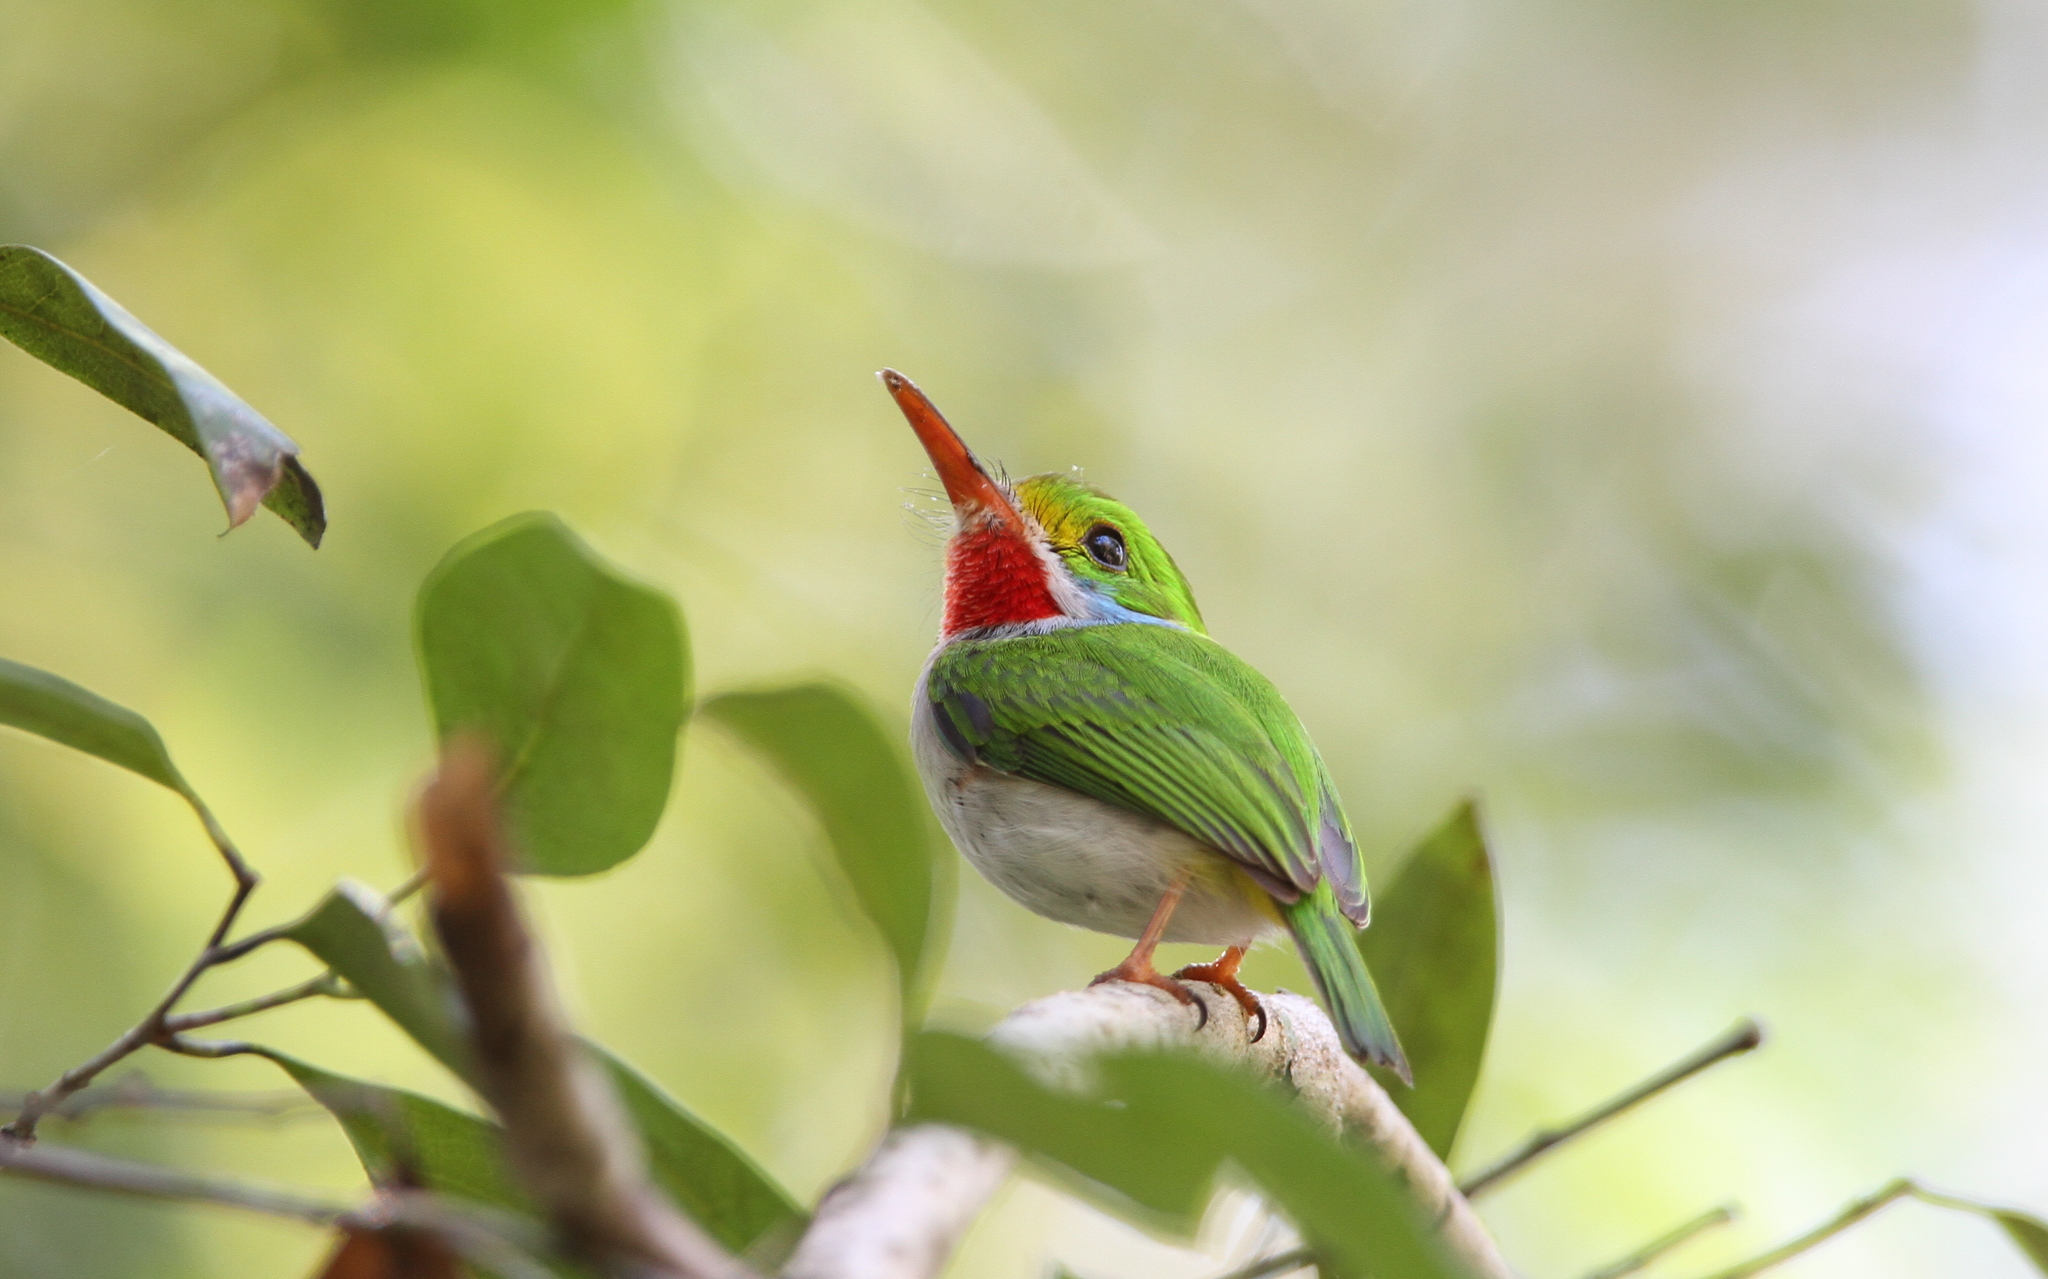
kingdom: Animalia
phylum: Chordata
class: Aves
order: Coraciiformes
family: Todidae
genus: Todus
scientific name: Todus multicolor
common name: Cuban tody
